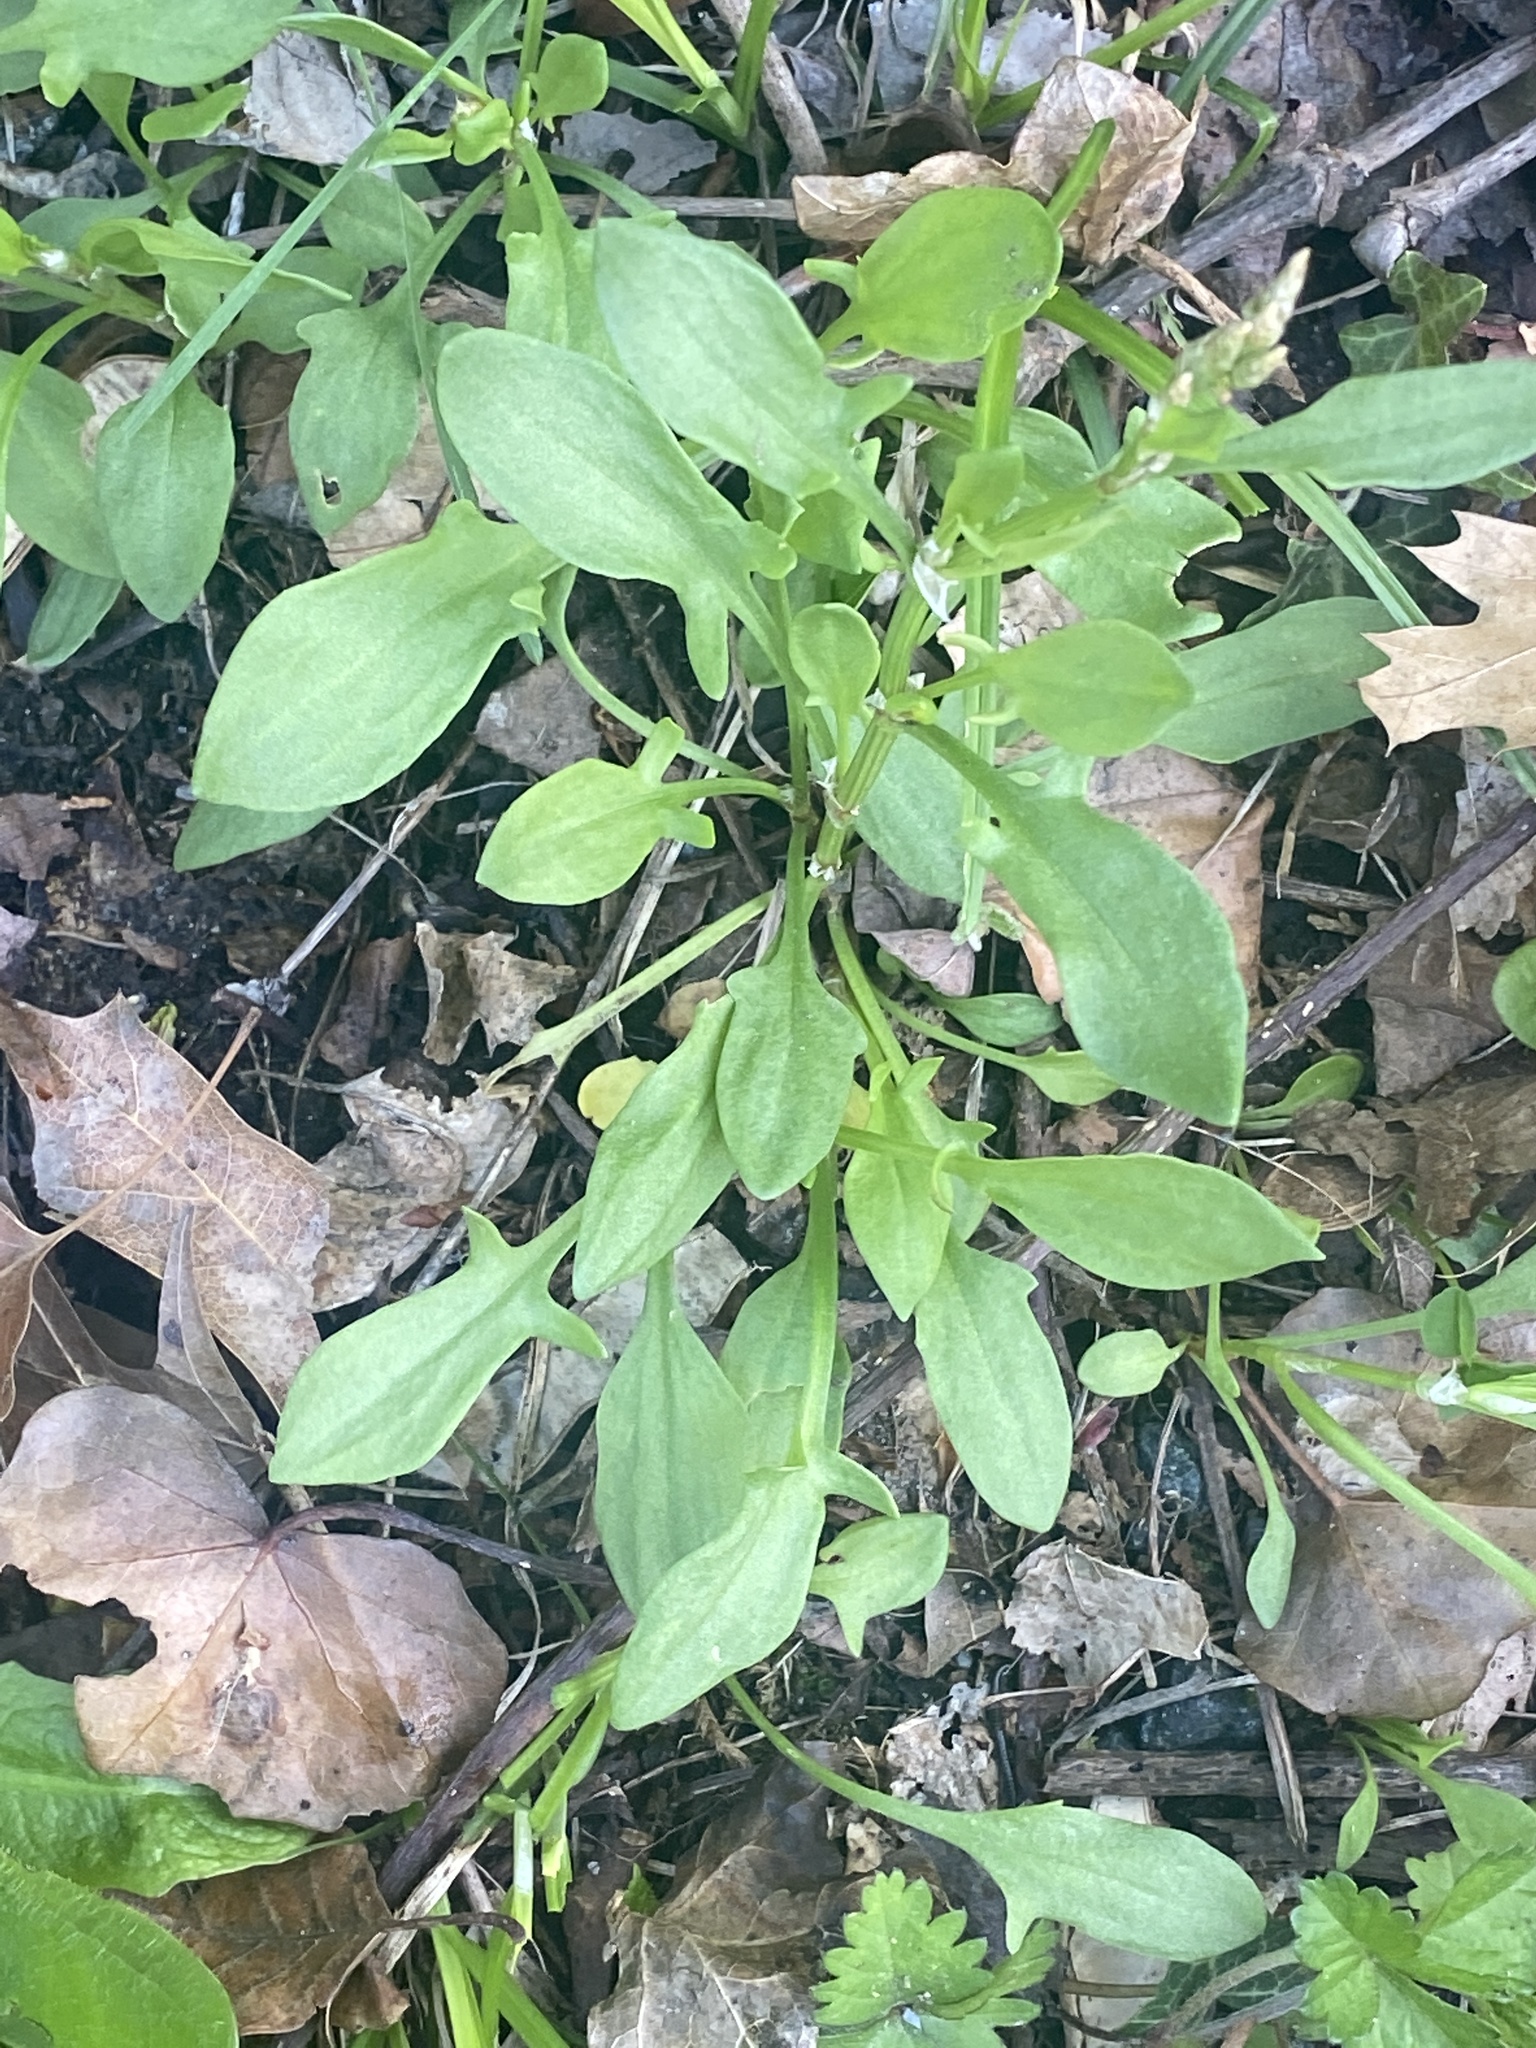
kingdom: Plantae
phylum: Tracheophyta
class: Magnoliopsida
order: Caryophyllales
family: Polygonaceae
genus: Rumex
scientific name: Rumex acetosella
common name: Common sheep sorrel
